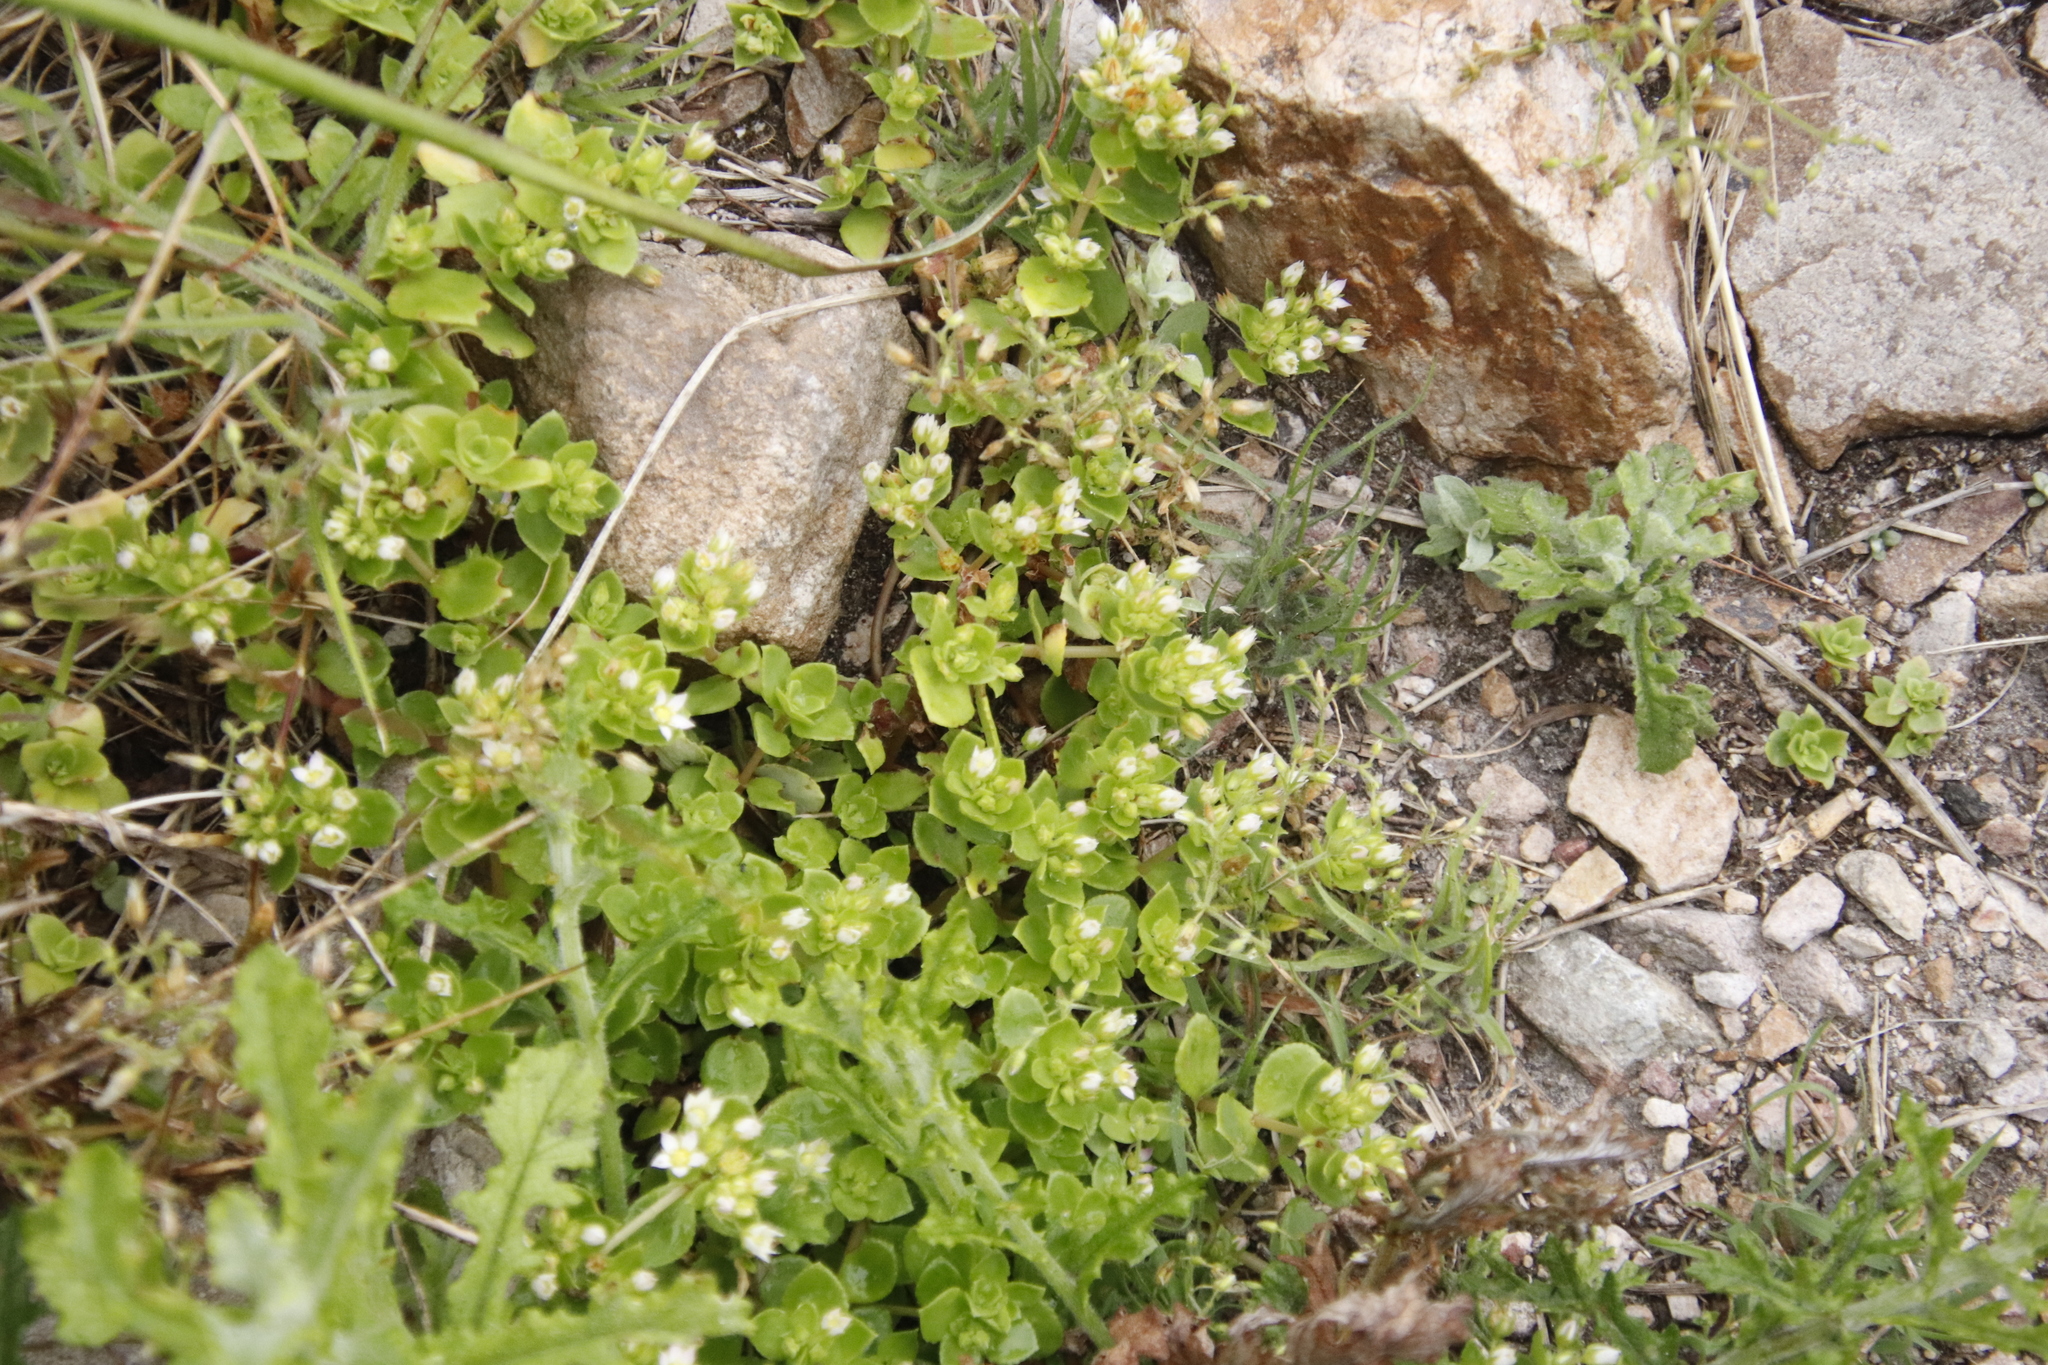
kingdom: Plantae
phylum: Tracheophyta
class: Magnoliopsida
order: Saxifragales
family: Crassulaceae
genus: Crassula
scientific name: Crassula pellucida
